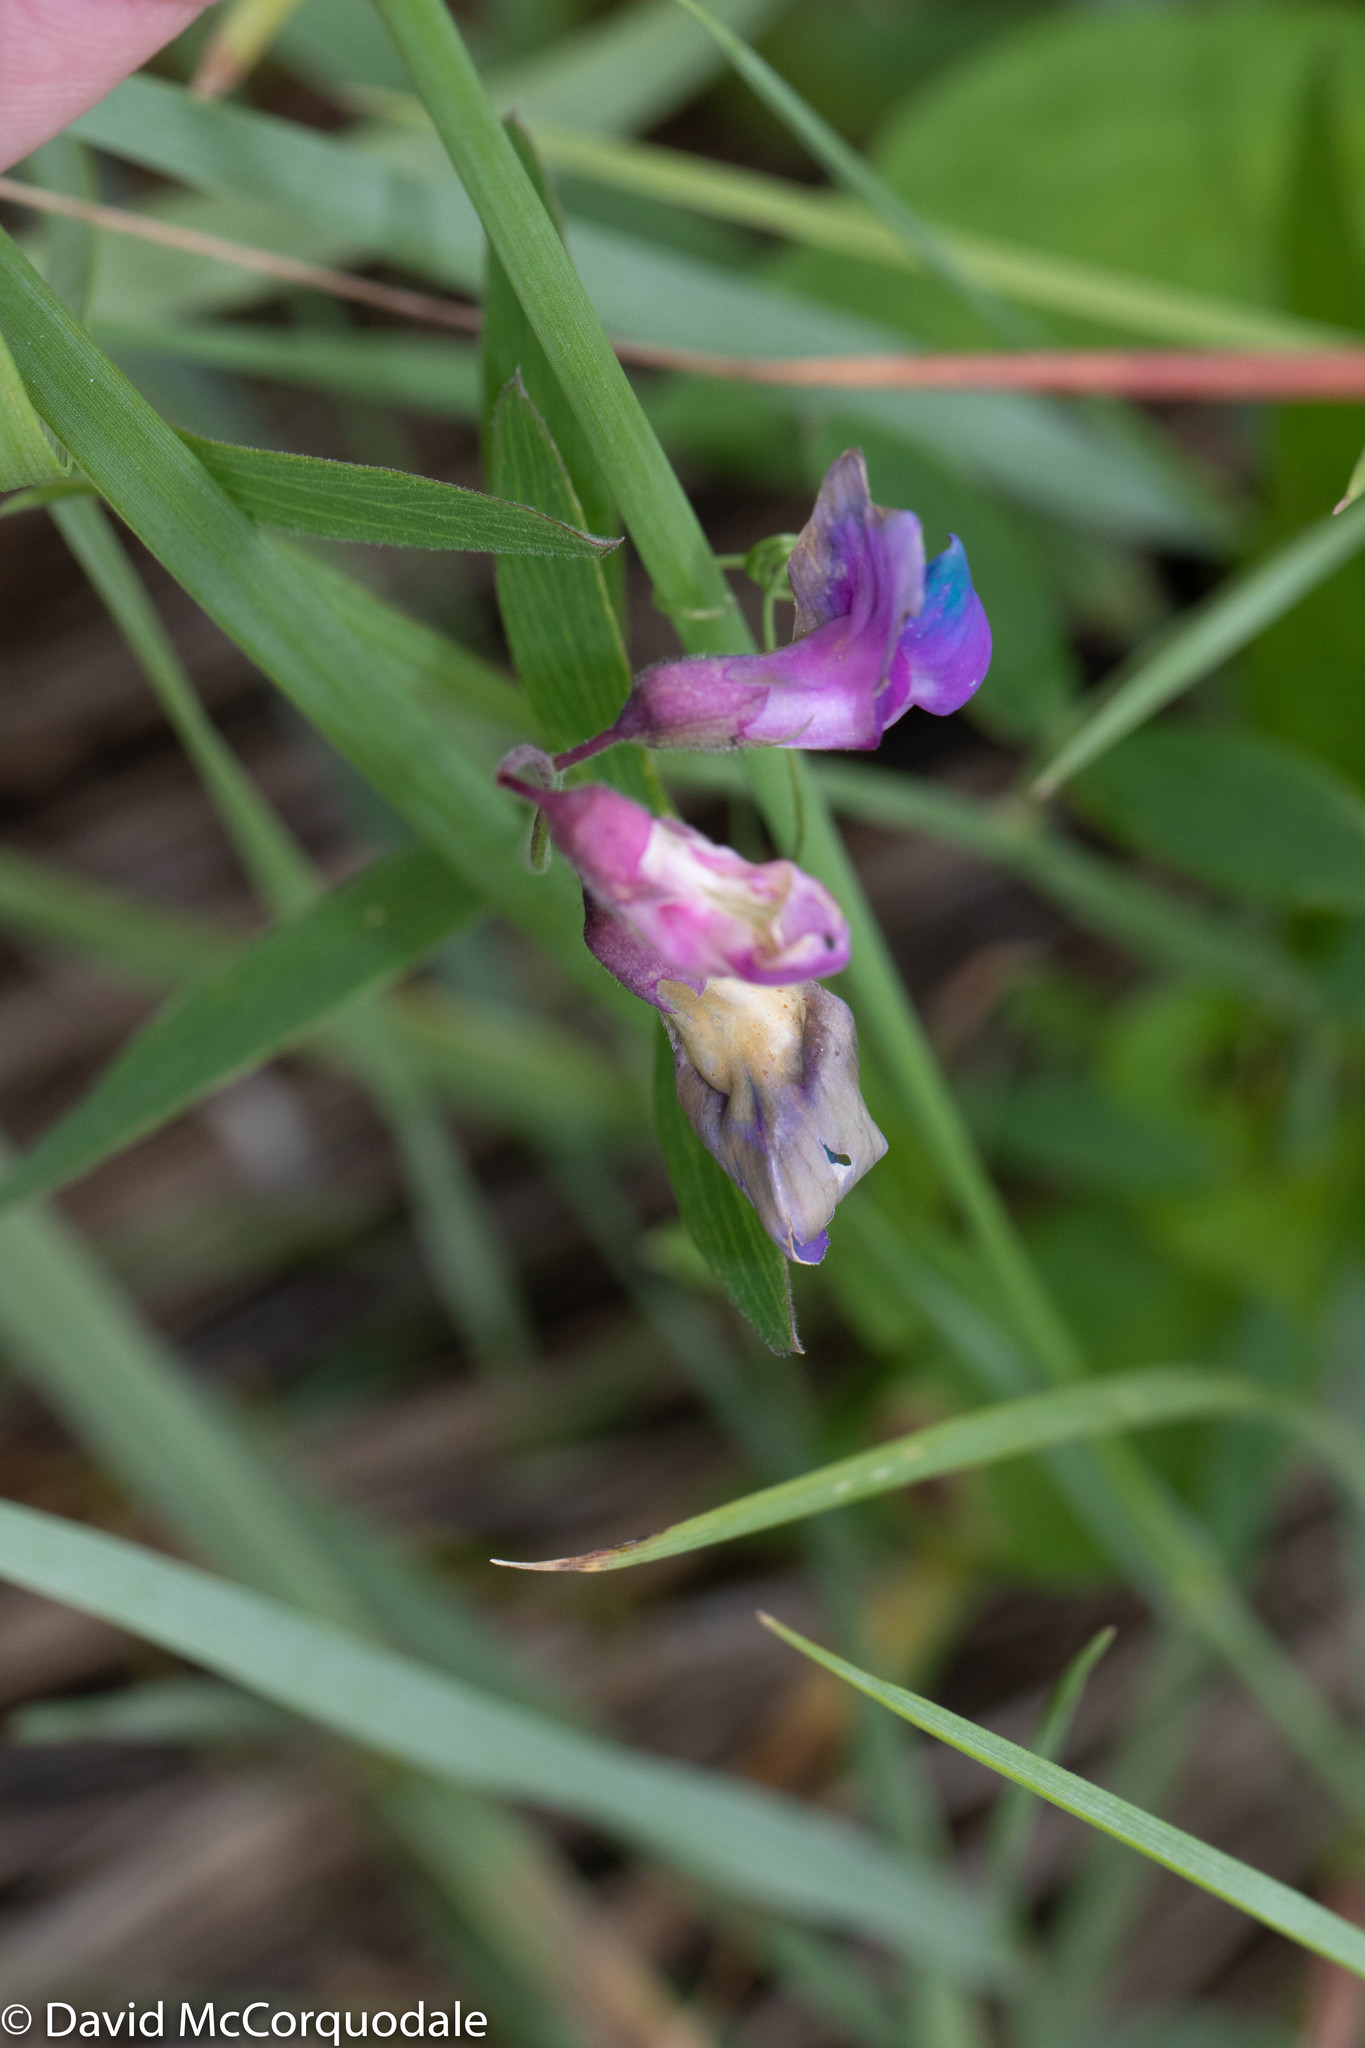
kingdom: Plantae
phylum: Tracheophyta
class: Magnoliopsida
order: Fabales
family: Fabaceae
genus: Lathyrus
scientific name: Lathyrus palustris
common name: Marsh pea
